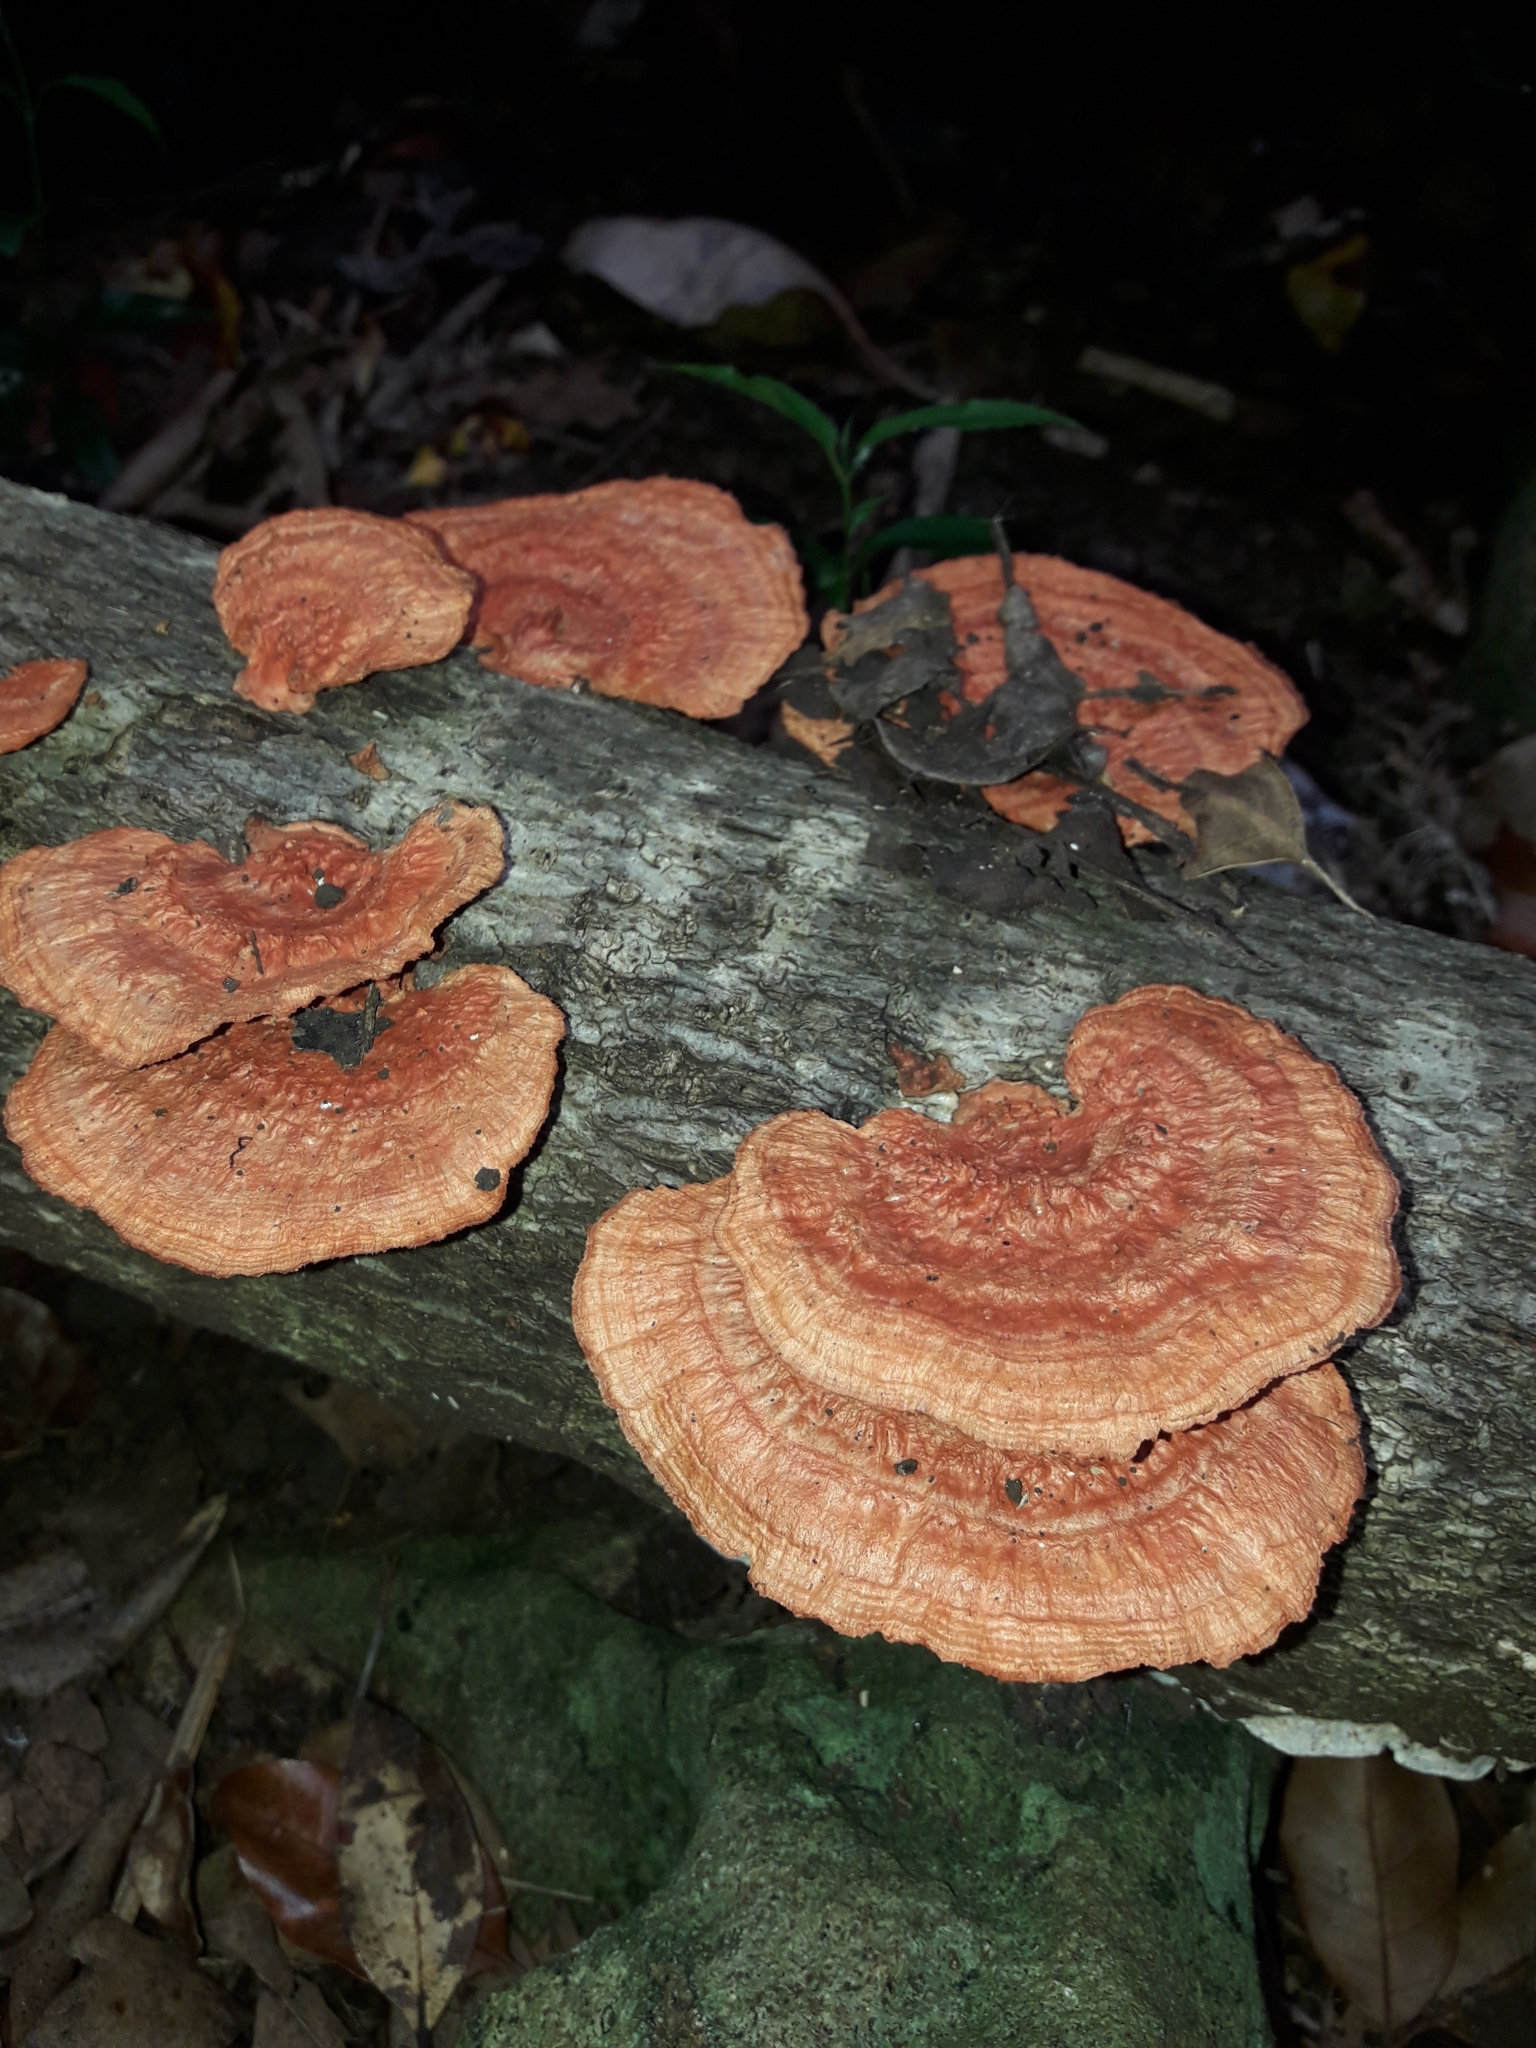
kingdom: Fungi
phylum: Basidiomycota
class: Agaricomycetes
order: Polyporales
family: Polyporaceae
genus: Trametes
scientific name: Trametes coccinea
